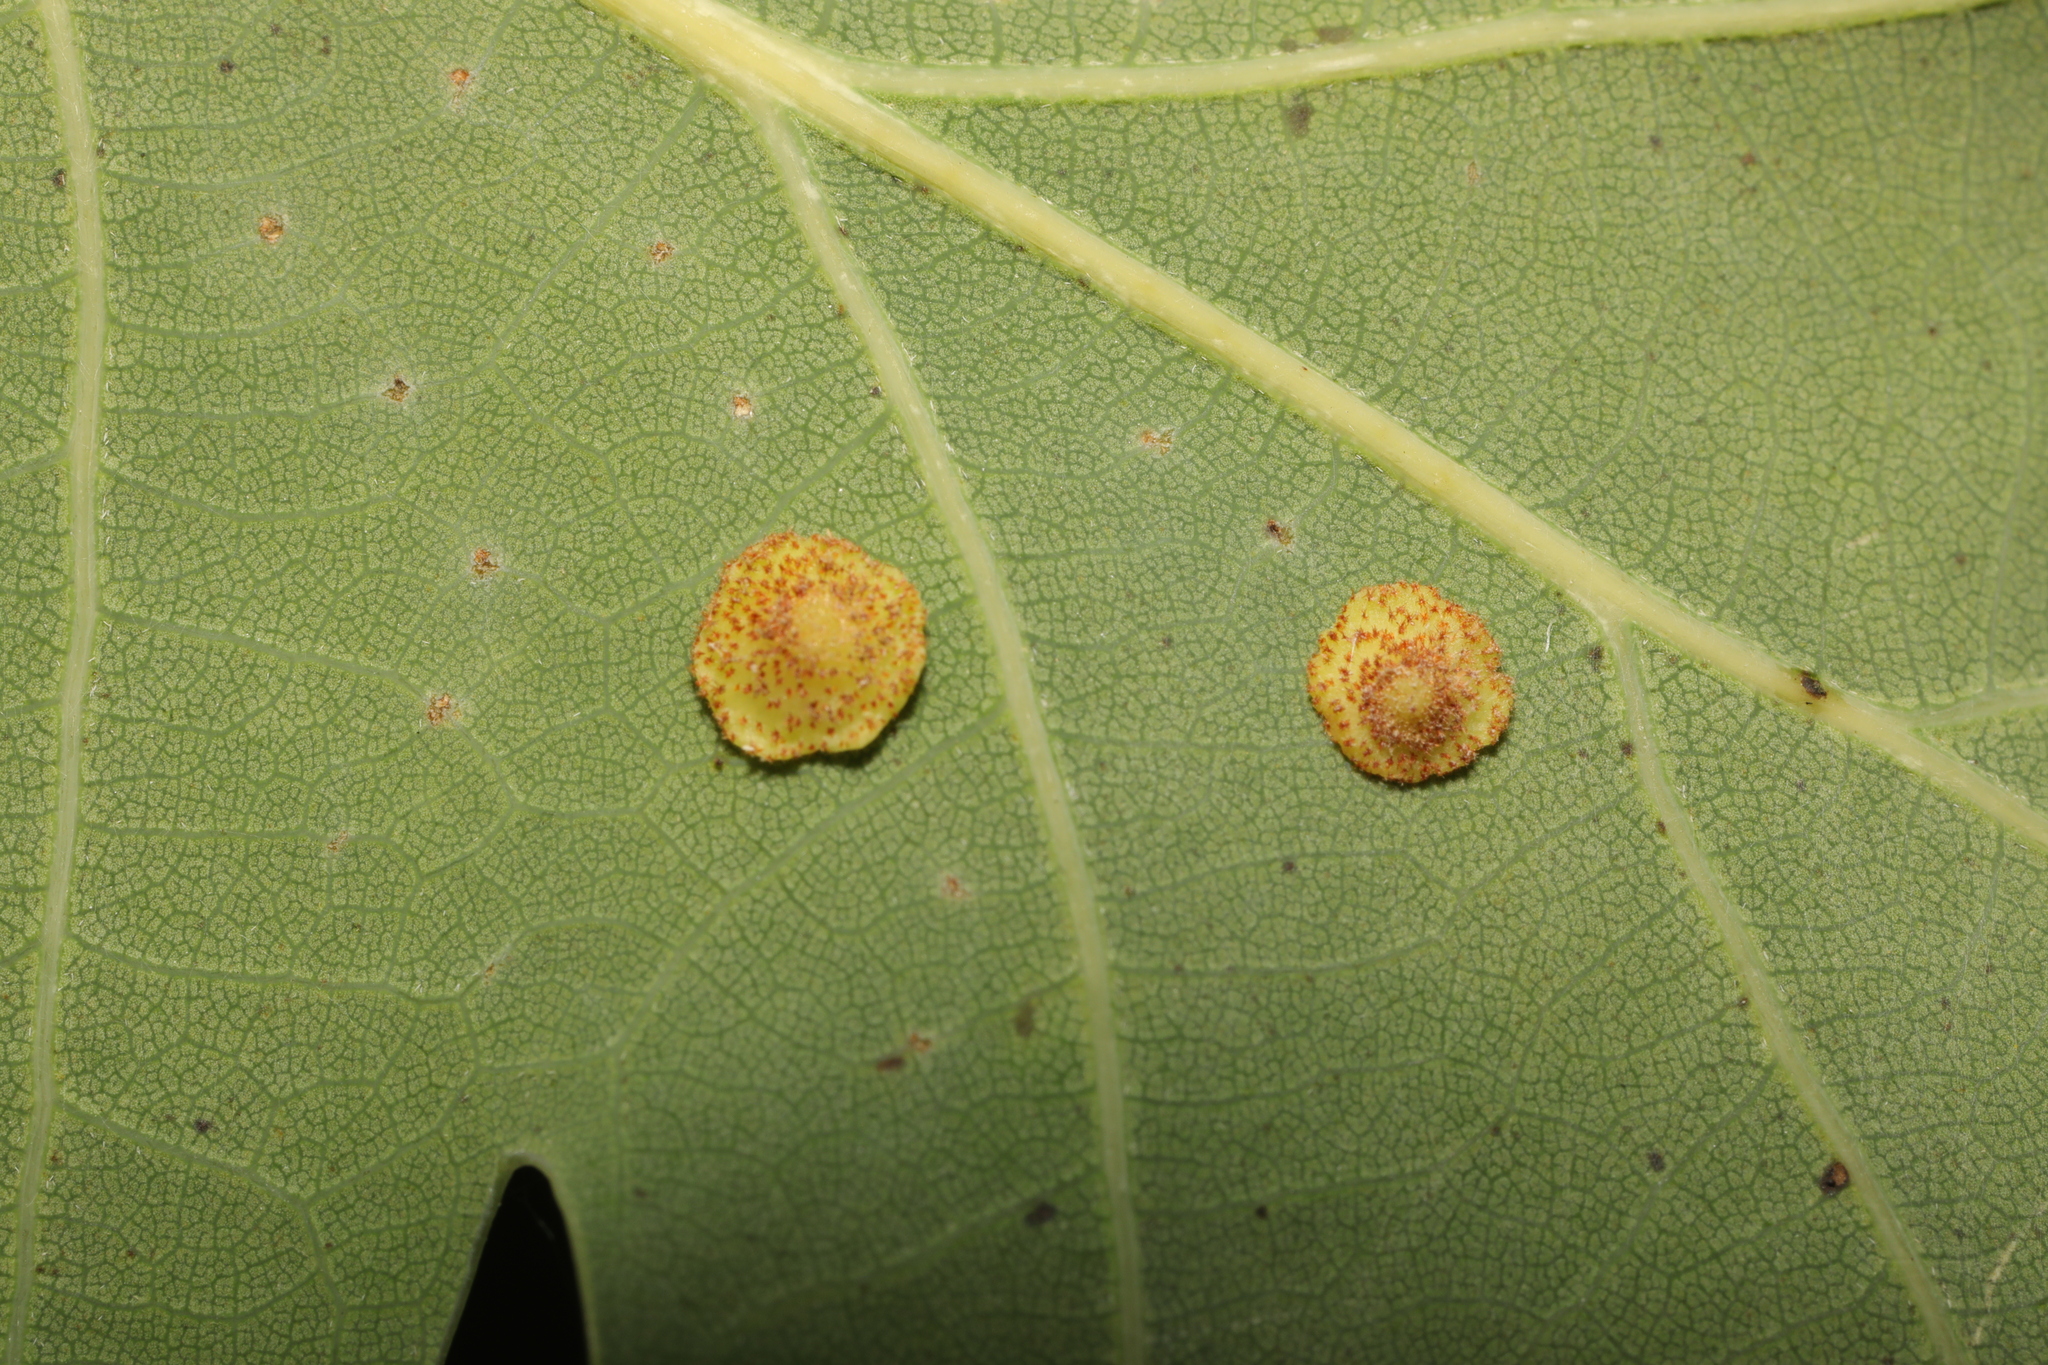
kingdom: Animalia
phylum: Arthropoda
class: Insecta
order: Hymenoptera
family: Cynipidae
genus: Neuroterus
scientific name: Neuroterus quercusbaccarum
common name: Common spangle gall
